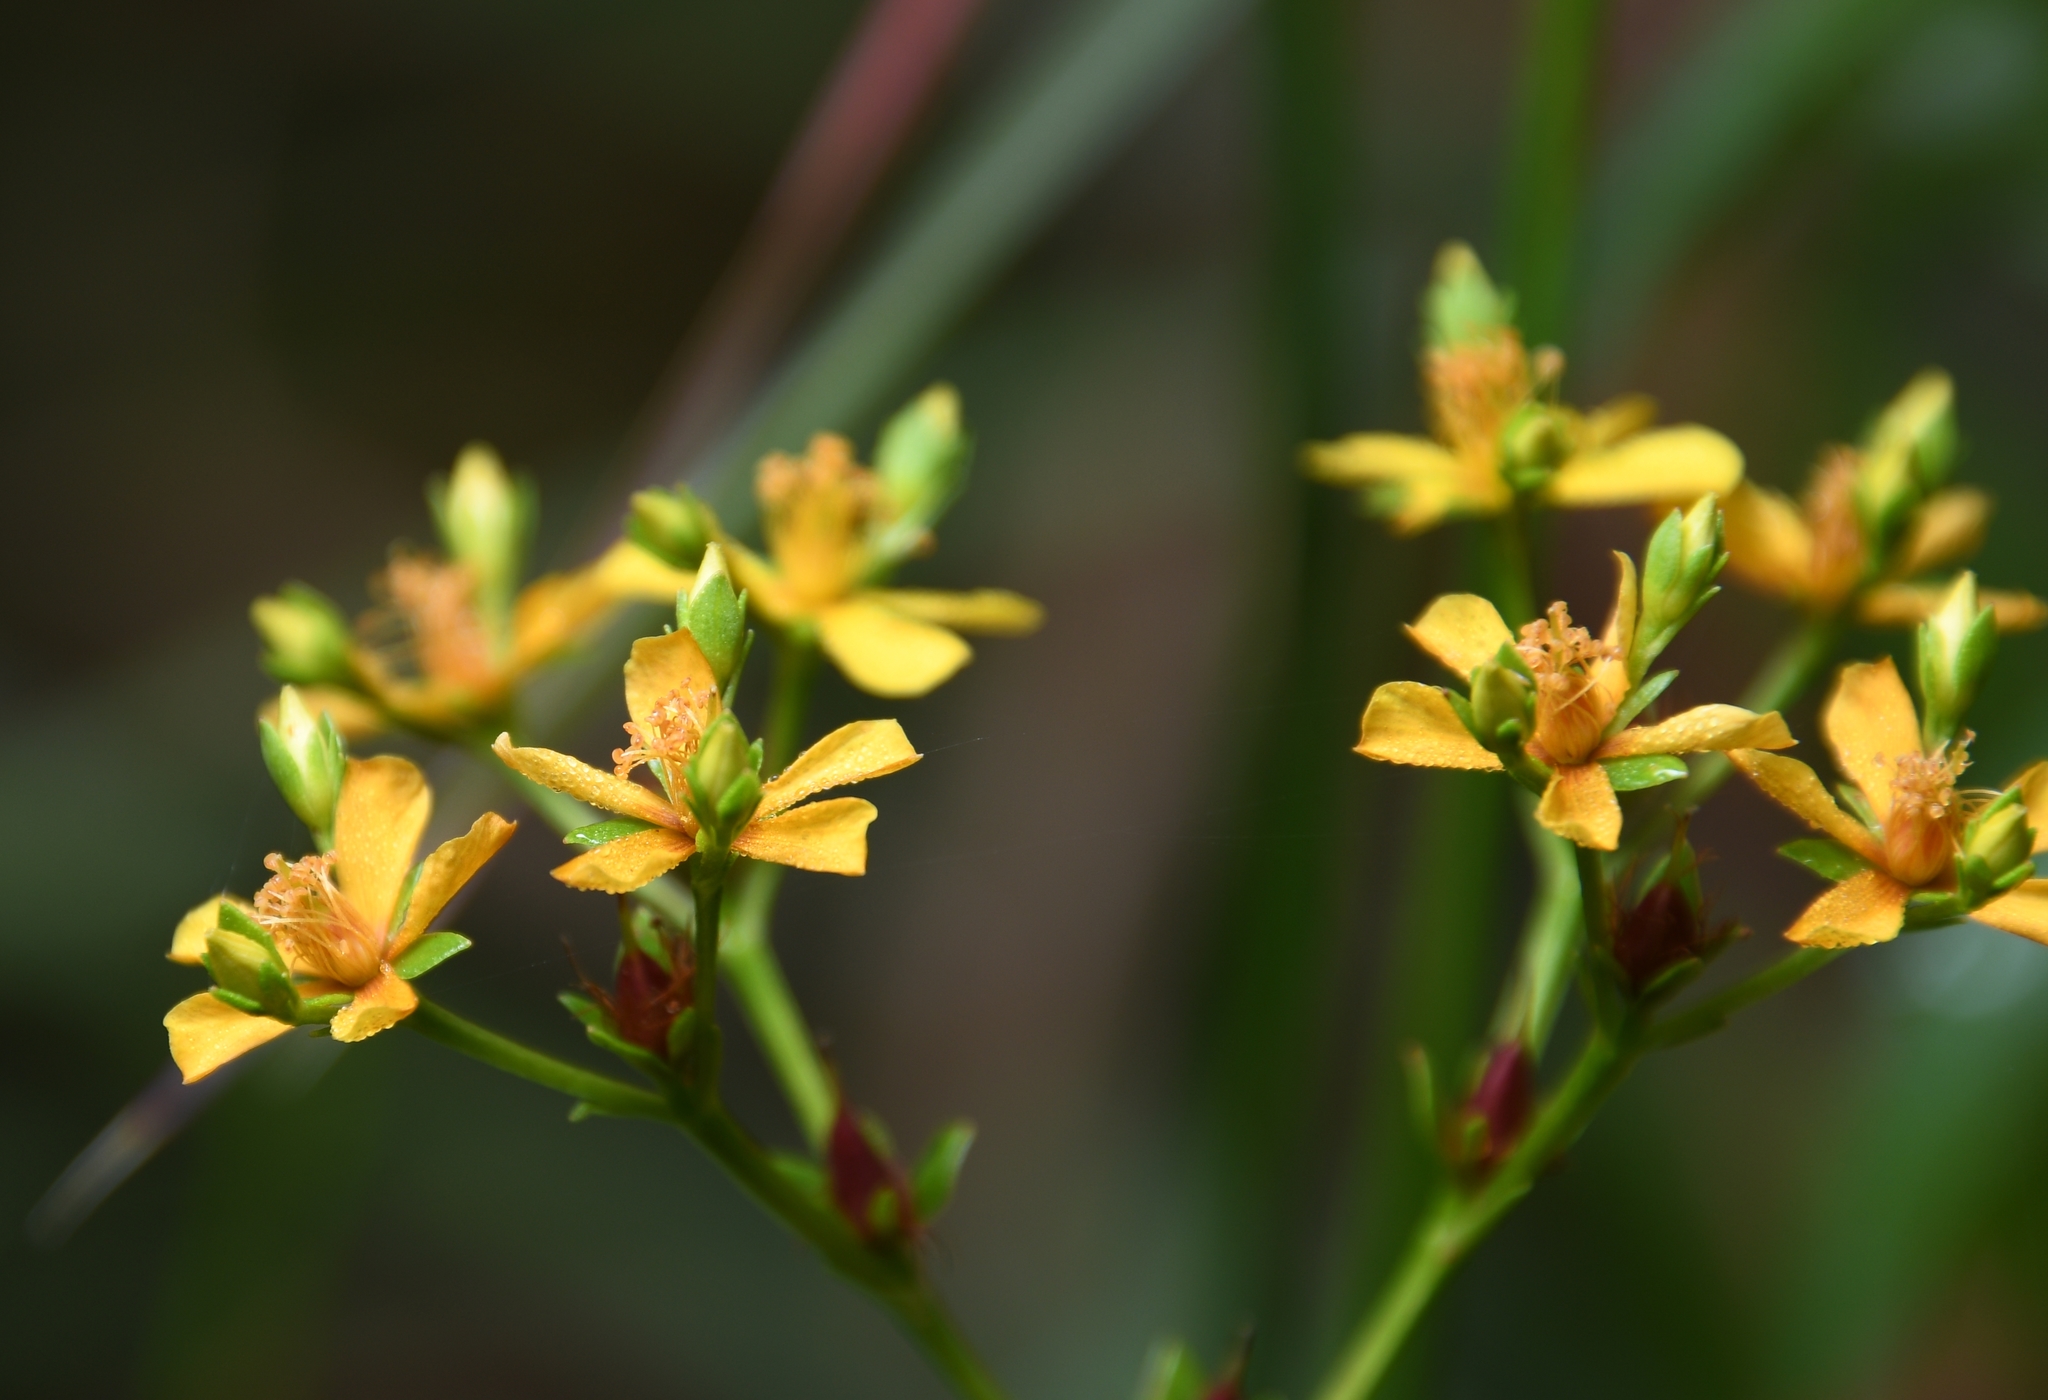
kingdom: Plantae
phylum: Tracheophyta
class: Magnoliopsida
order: Malpighiales
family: Hypericaceae
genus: Hypericum
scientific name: Hypericum cistifolium
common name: Round-pod st. john's-wort
